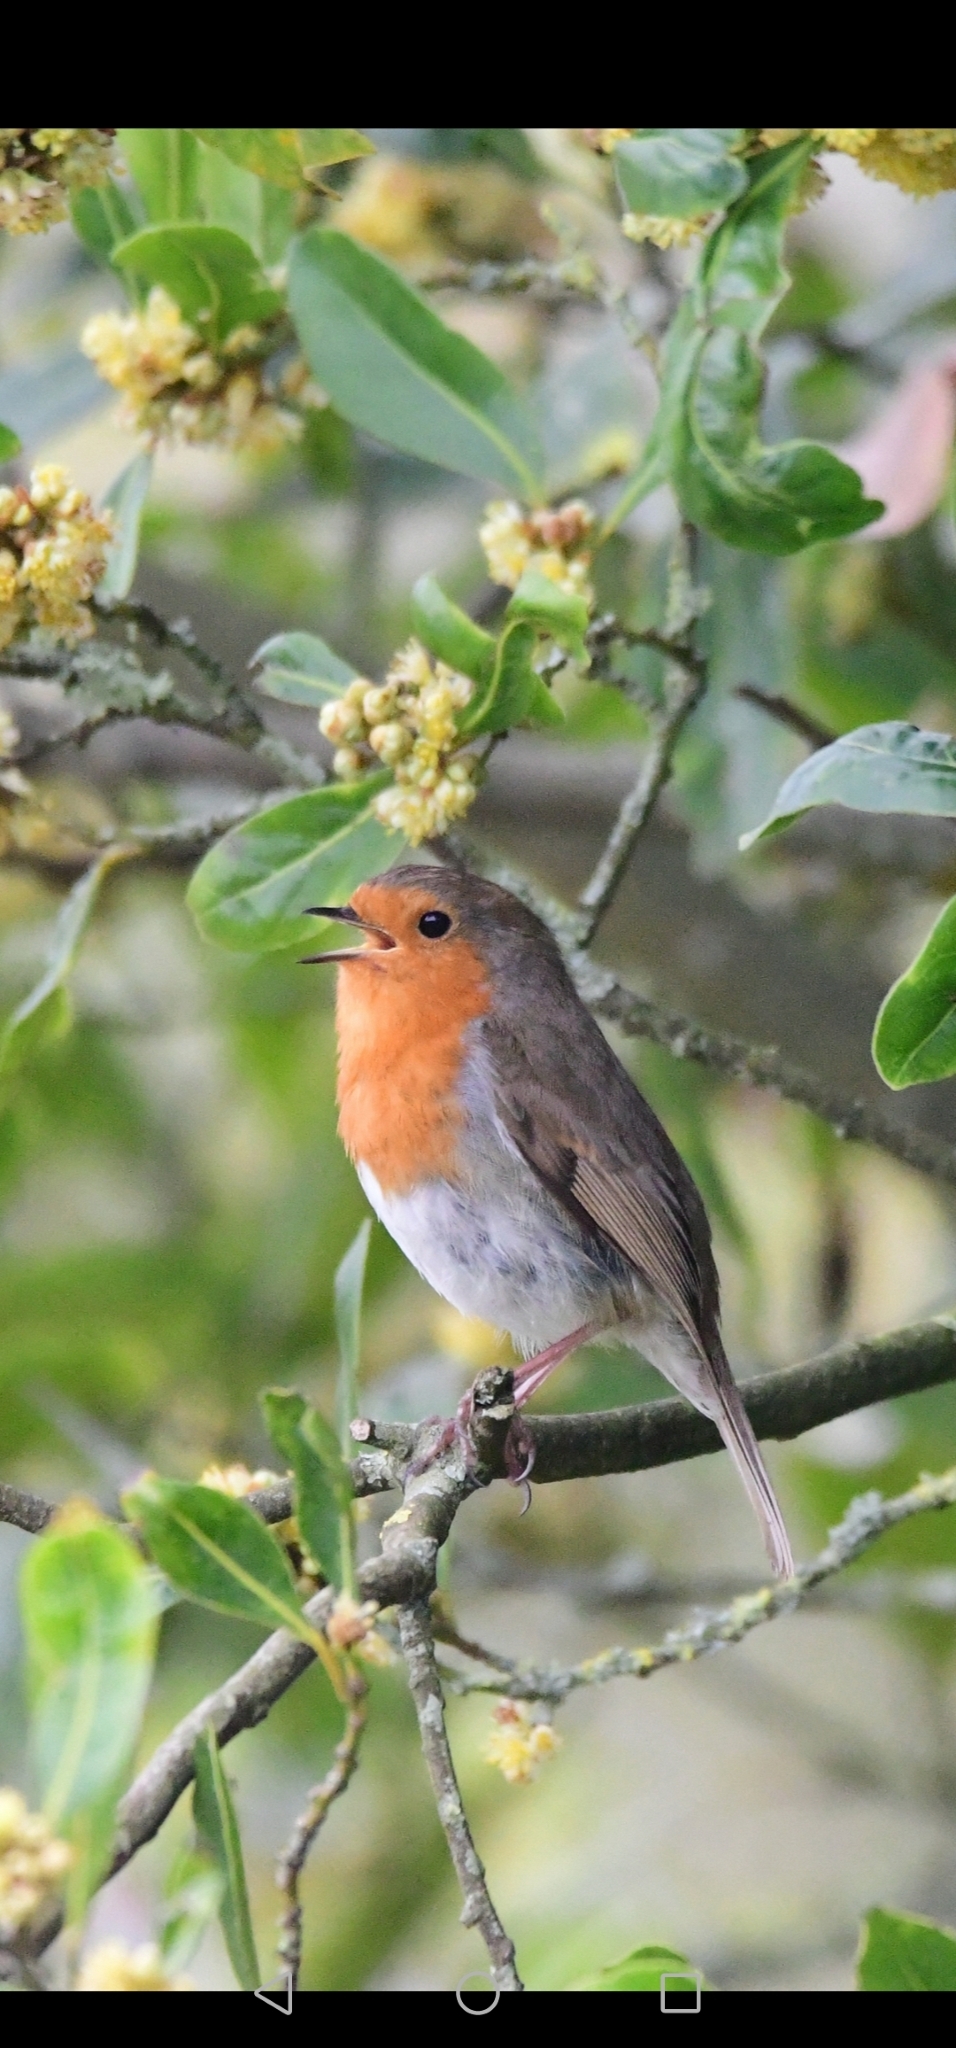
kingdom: Animalia
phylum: Chordata
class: Aves
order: Passeriformes
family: Muscicapidae
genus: Erithacus
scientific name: Erithacus rubecula
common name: European robin
